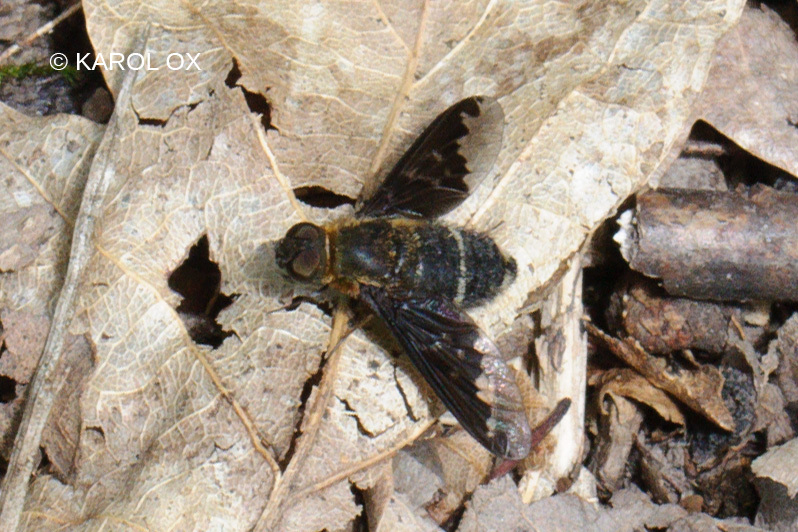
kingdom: Animalia
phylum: Arthropoda
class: Insecta
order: Diptera
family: Bombyliidae
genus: Hemipenthes
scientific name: Hemipenthes velutina
